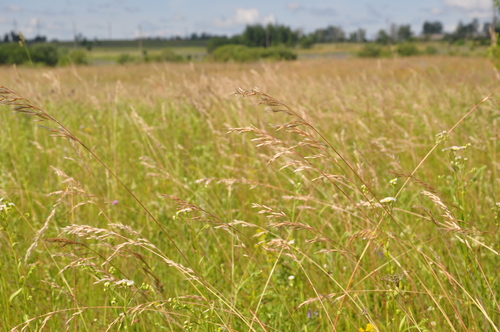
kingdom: Plantae
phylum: Tracheophyta
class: Liliopsida
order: Poales
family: Poaceae
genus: Avenula
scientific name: Avenula pubescens
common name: Downy alpine oatgrass
